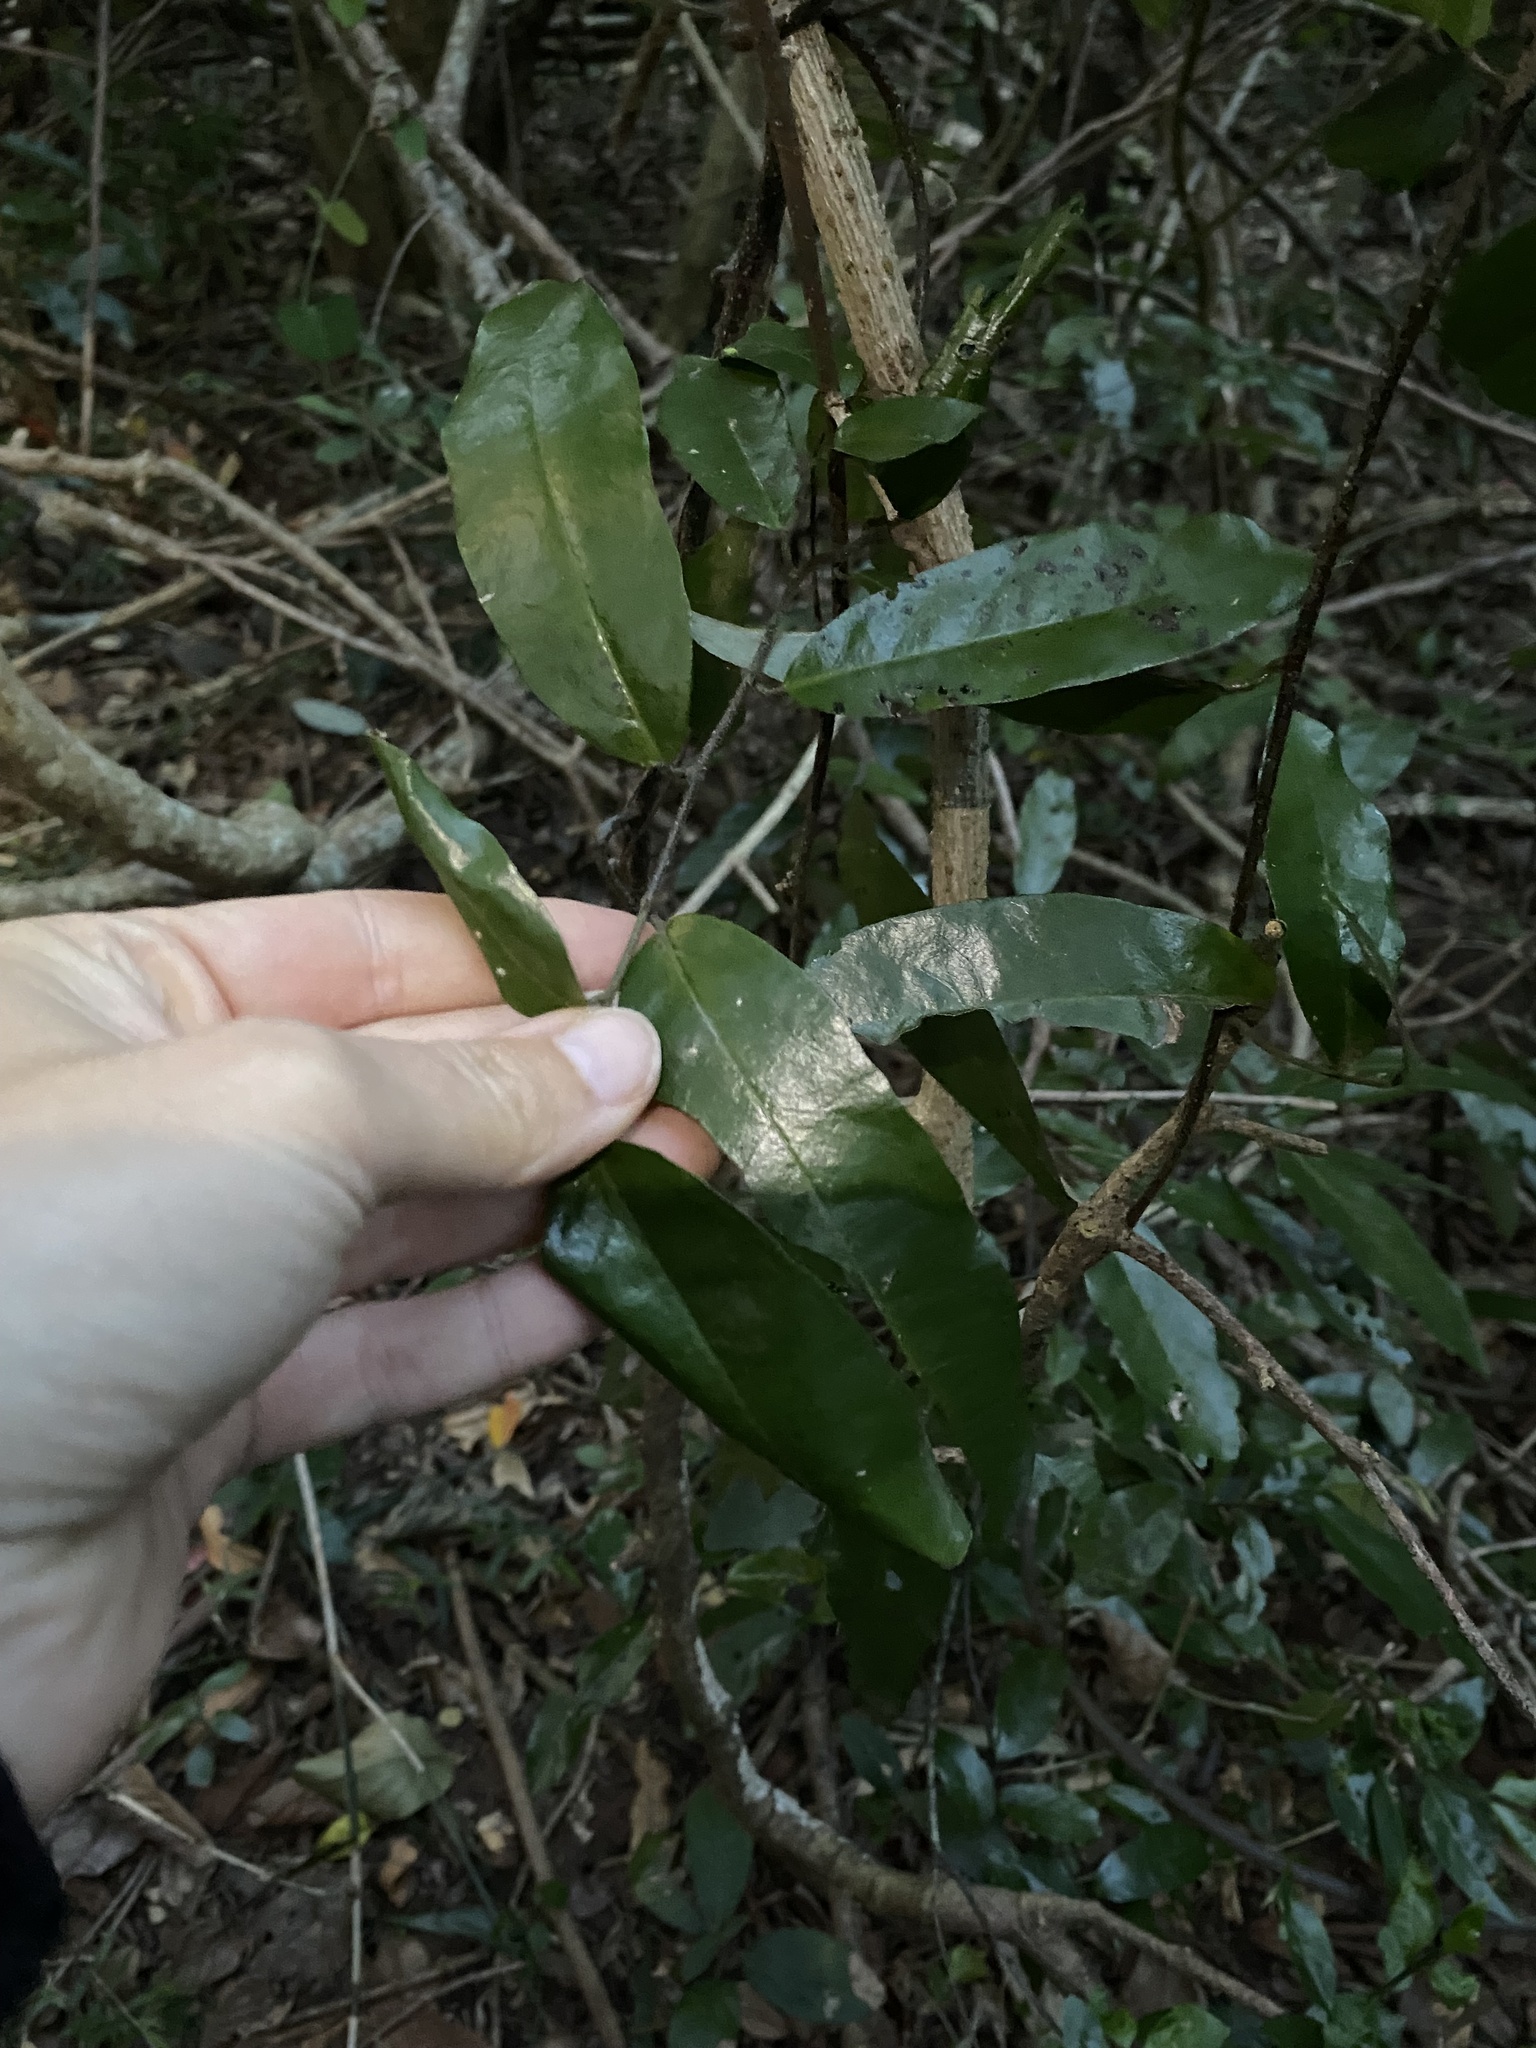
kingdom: Plantae
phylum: Tracheophyta
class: Magnoliopsida
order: Magnoliales
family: Annonaceae
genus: Monanthotaxis
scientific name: Monanthotaxis caffra
